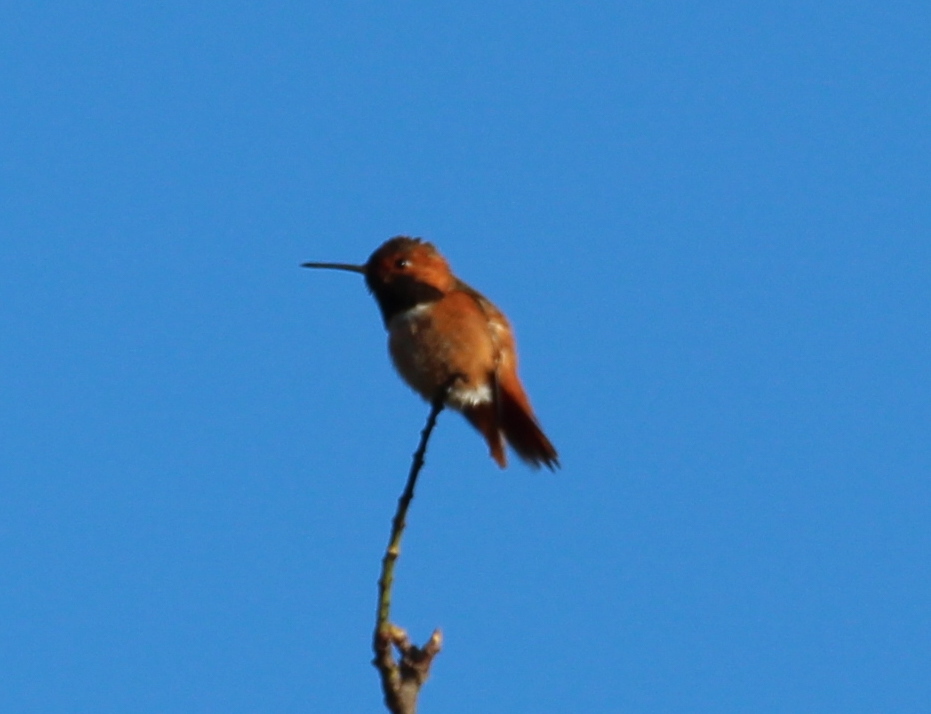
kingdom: Animalia
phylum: Chordata
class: Aves
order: Apodiformes
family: Trochilidae
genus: Selasphorus
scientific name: Selasphorus sasin
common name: Allen's hummingbird
